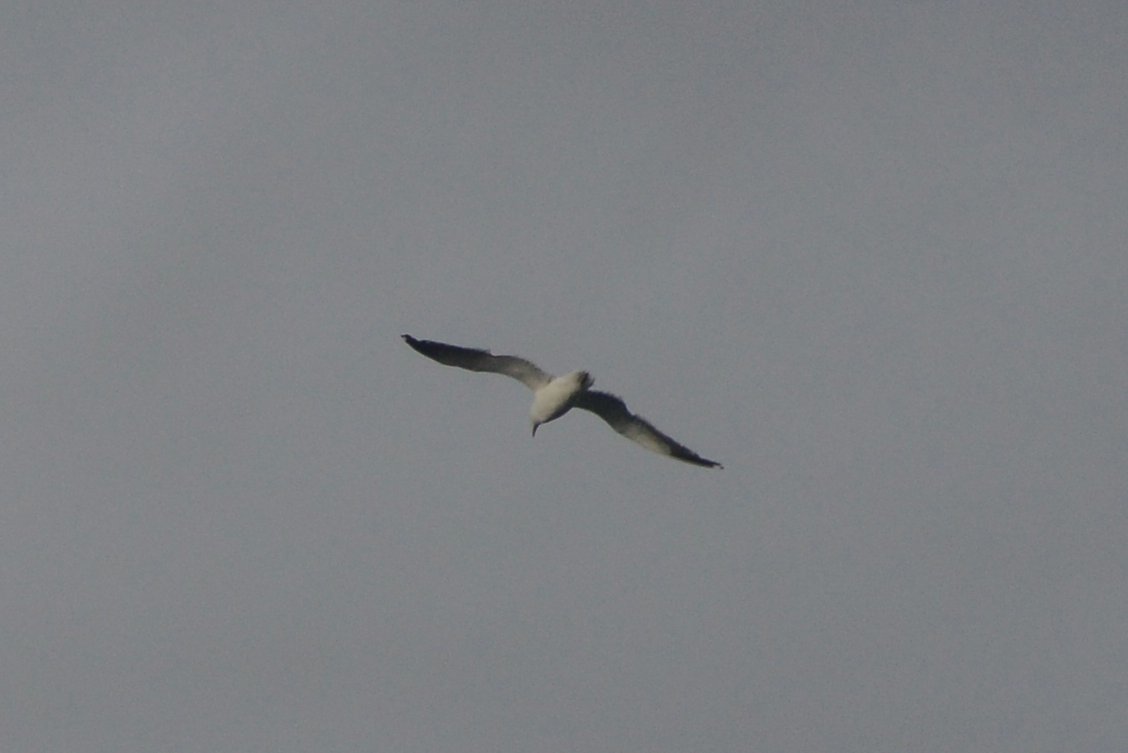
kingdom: Animalia
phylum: Chordata
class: Aves
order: Charadriiformes
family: Laridae
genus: Larus
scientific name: Larus dominicanus
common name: Kelp gull
